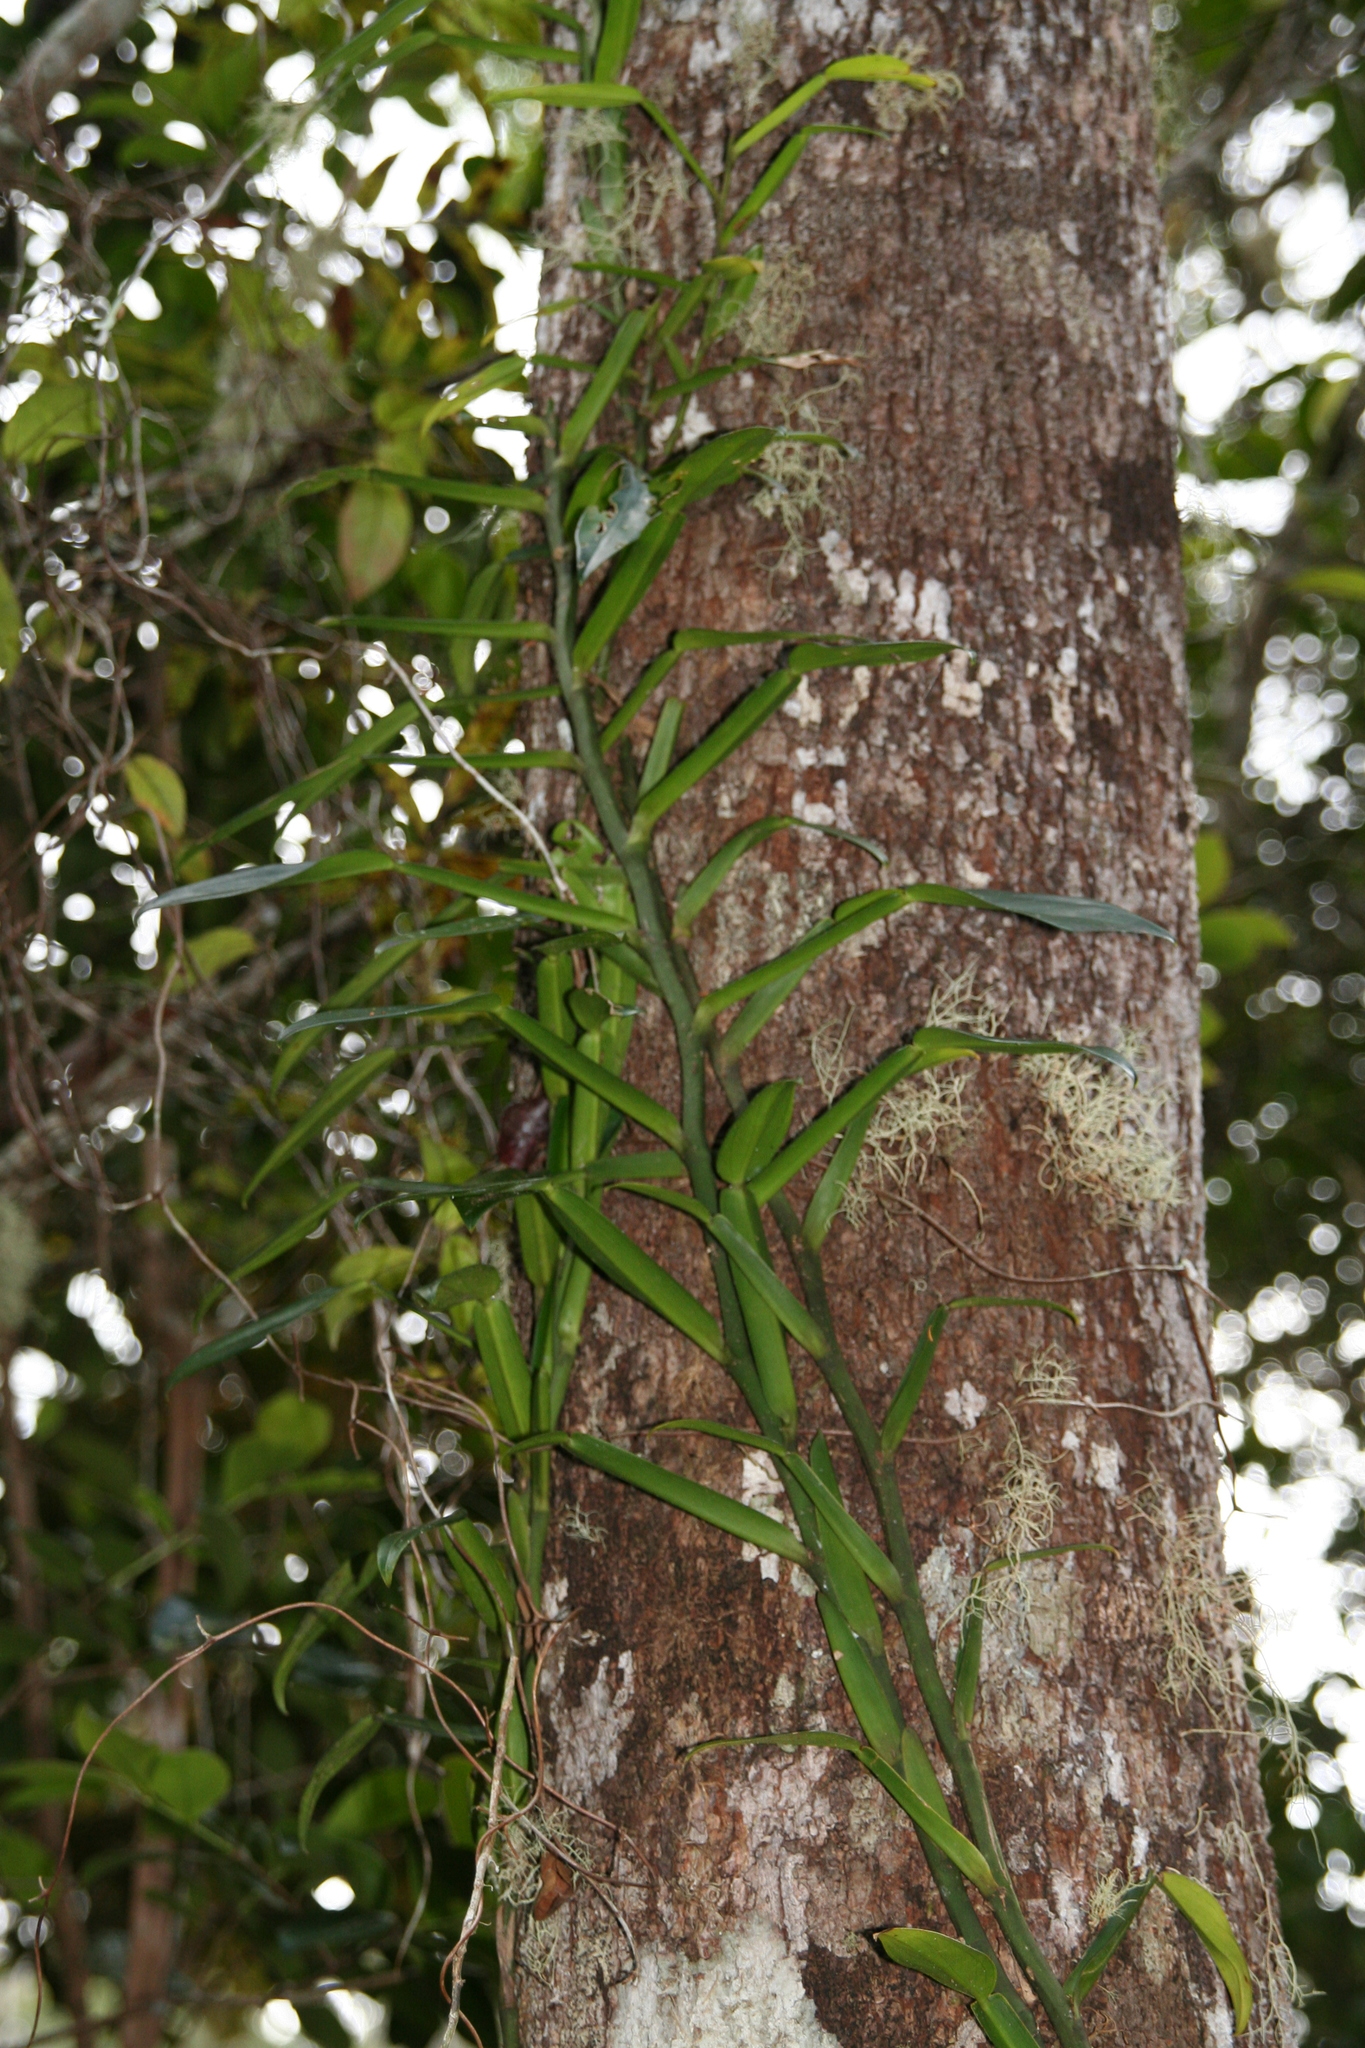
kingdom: Plantae
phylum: Tracheophyta
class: Liliopsida
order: Alismatales
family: Araceae
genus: Pothos
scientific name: Pothos scandens
